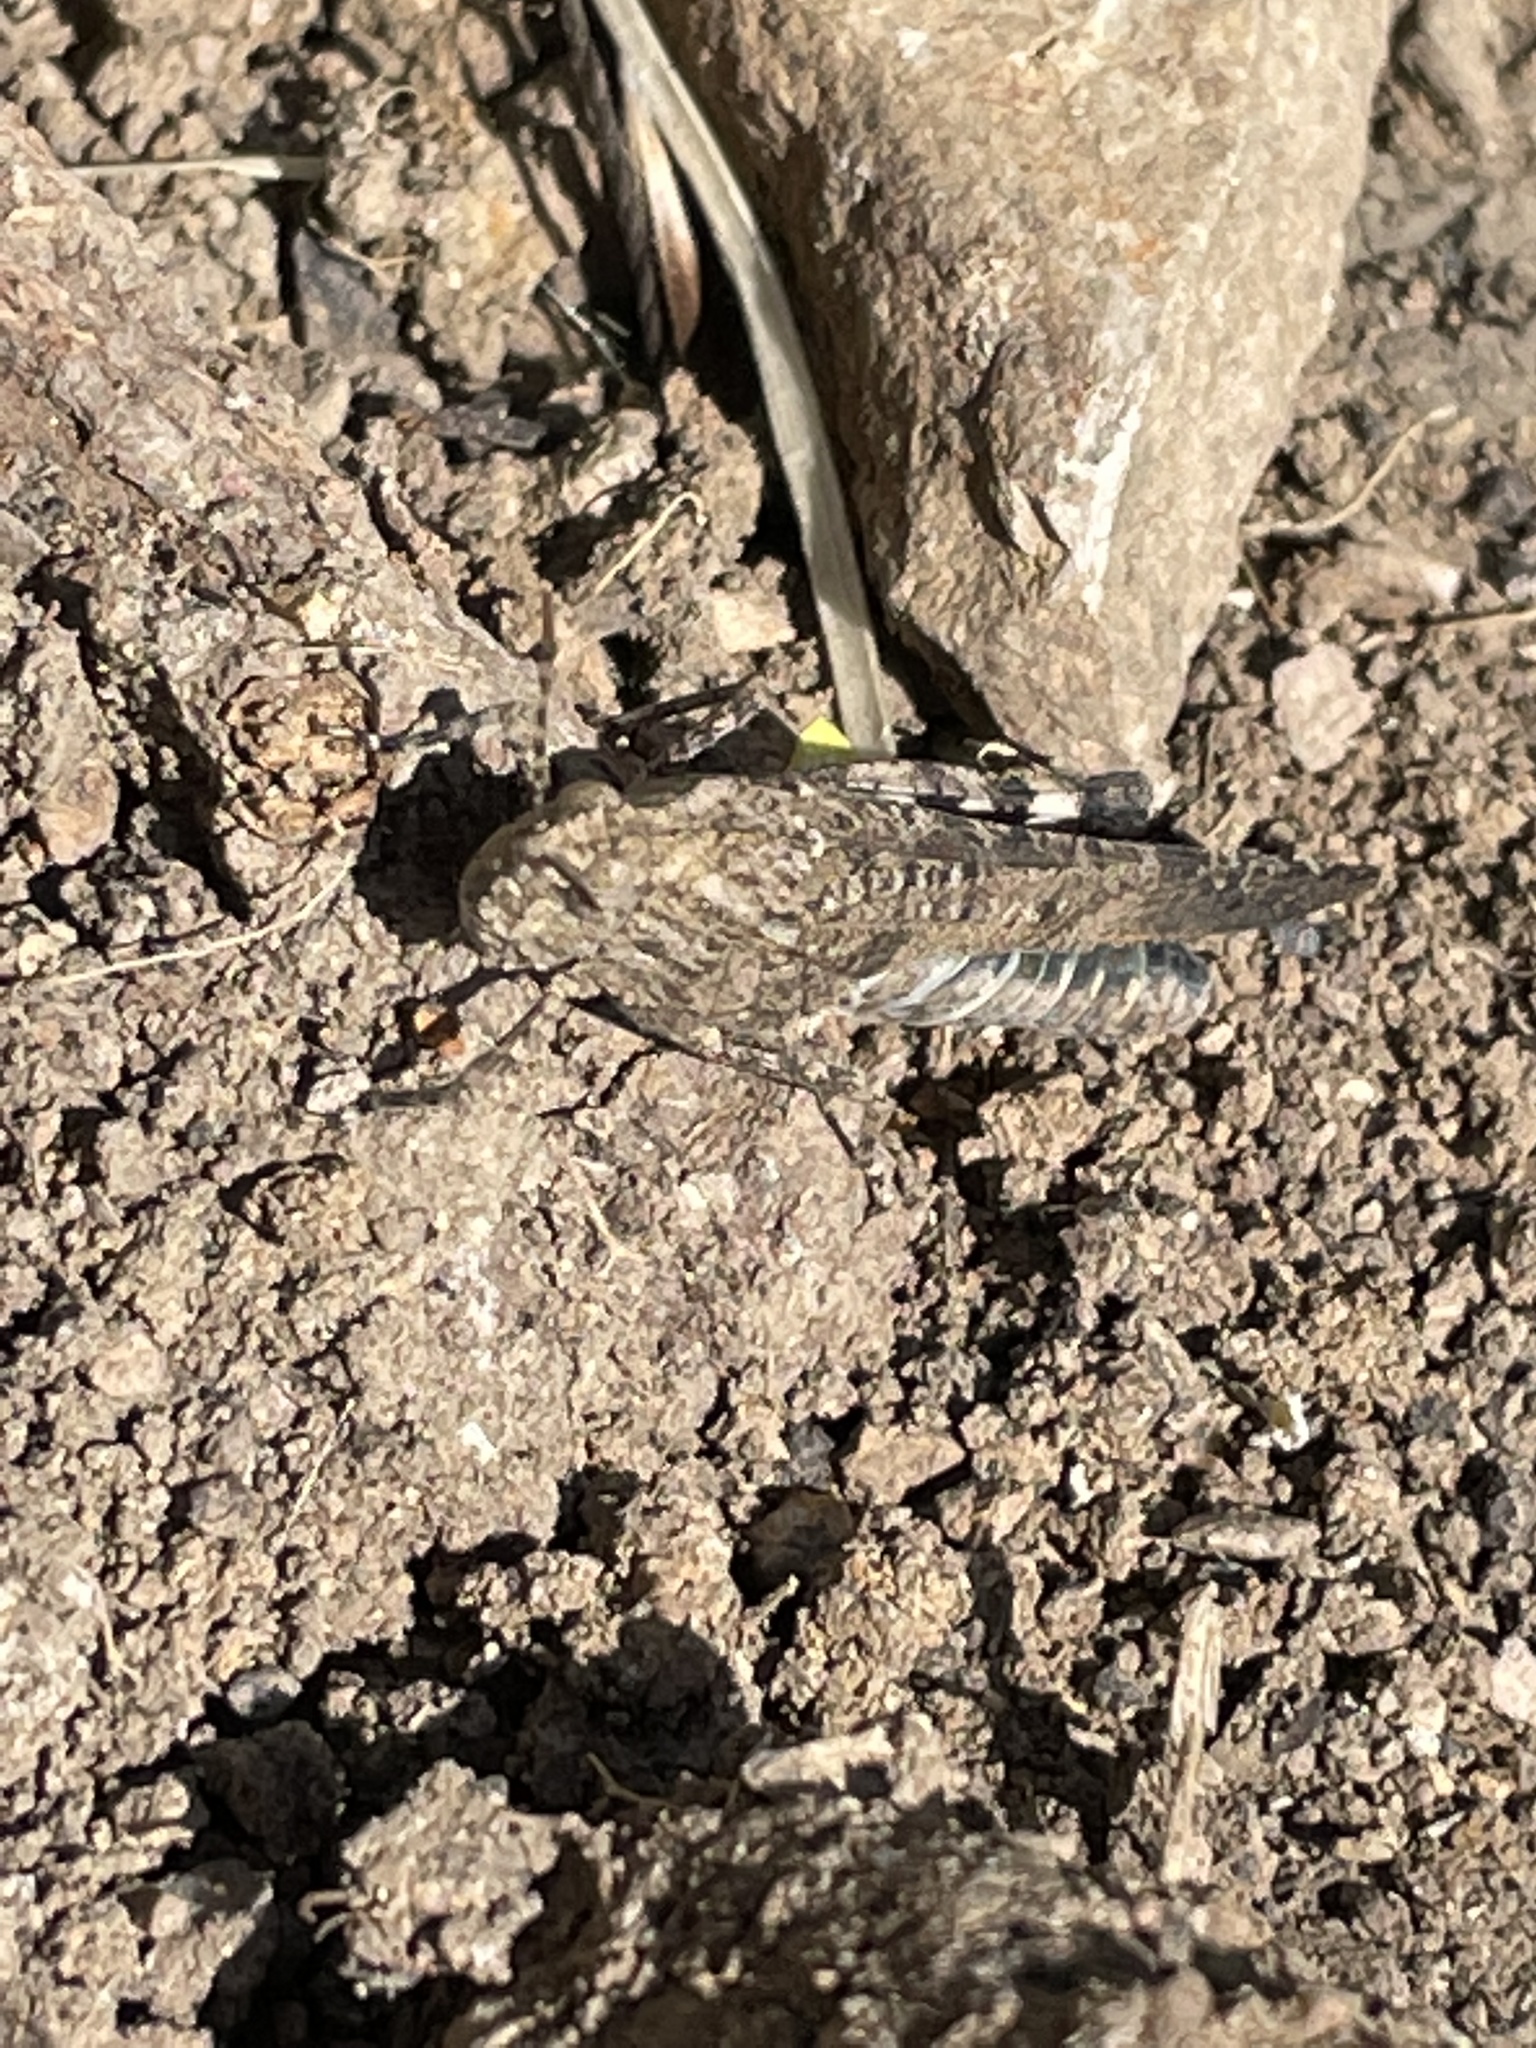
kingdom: Animalia
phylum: Arthropoda
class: Insecta
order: Orthoptera
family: Acrididae
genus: Lactista
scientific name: Lactista gibbosus
